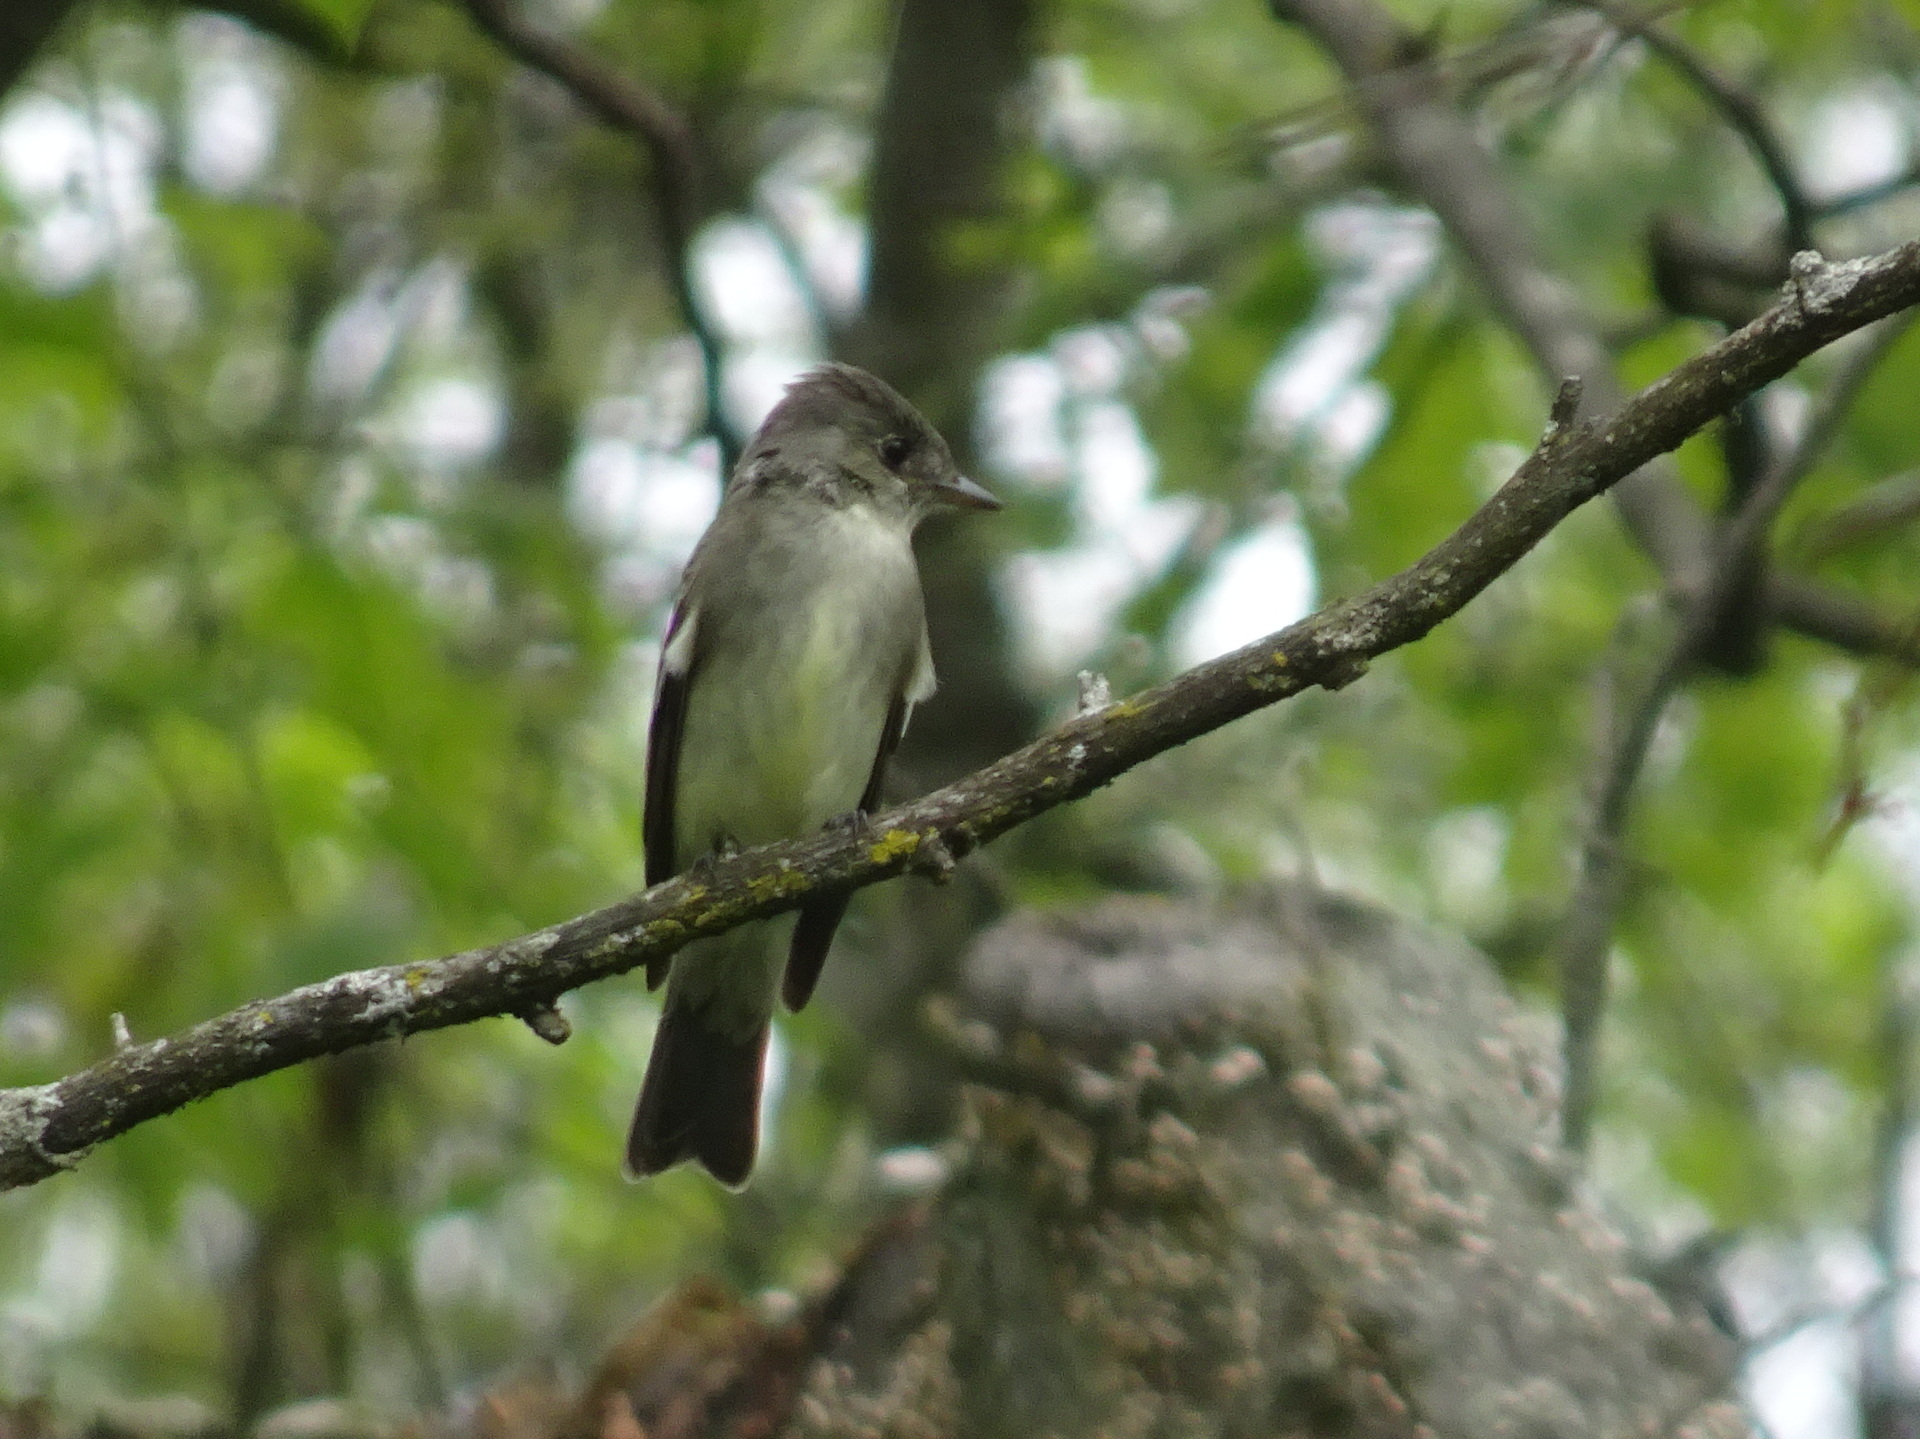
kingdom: Animalia
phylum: Chordata
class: Aves
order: Passeriformes
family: Tyrannidae
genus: Contopus
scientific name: Contopus virens
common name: Eastern wood-pewee
